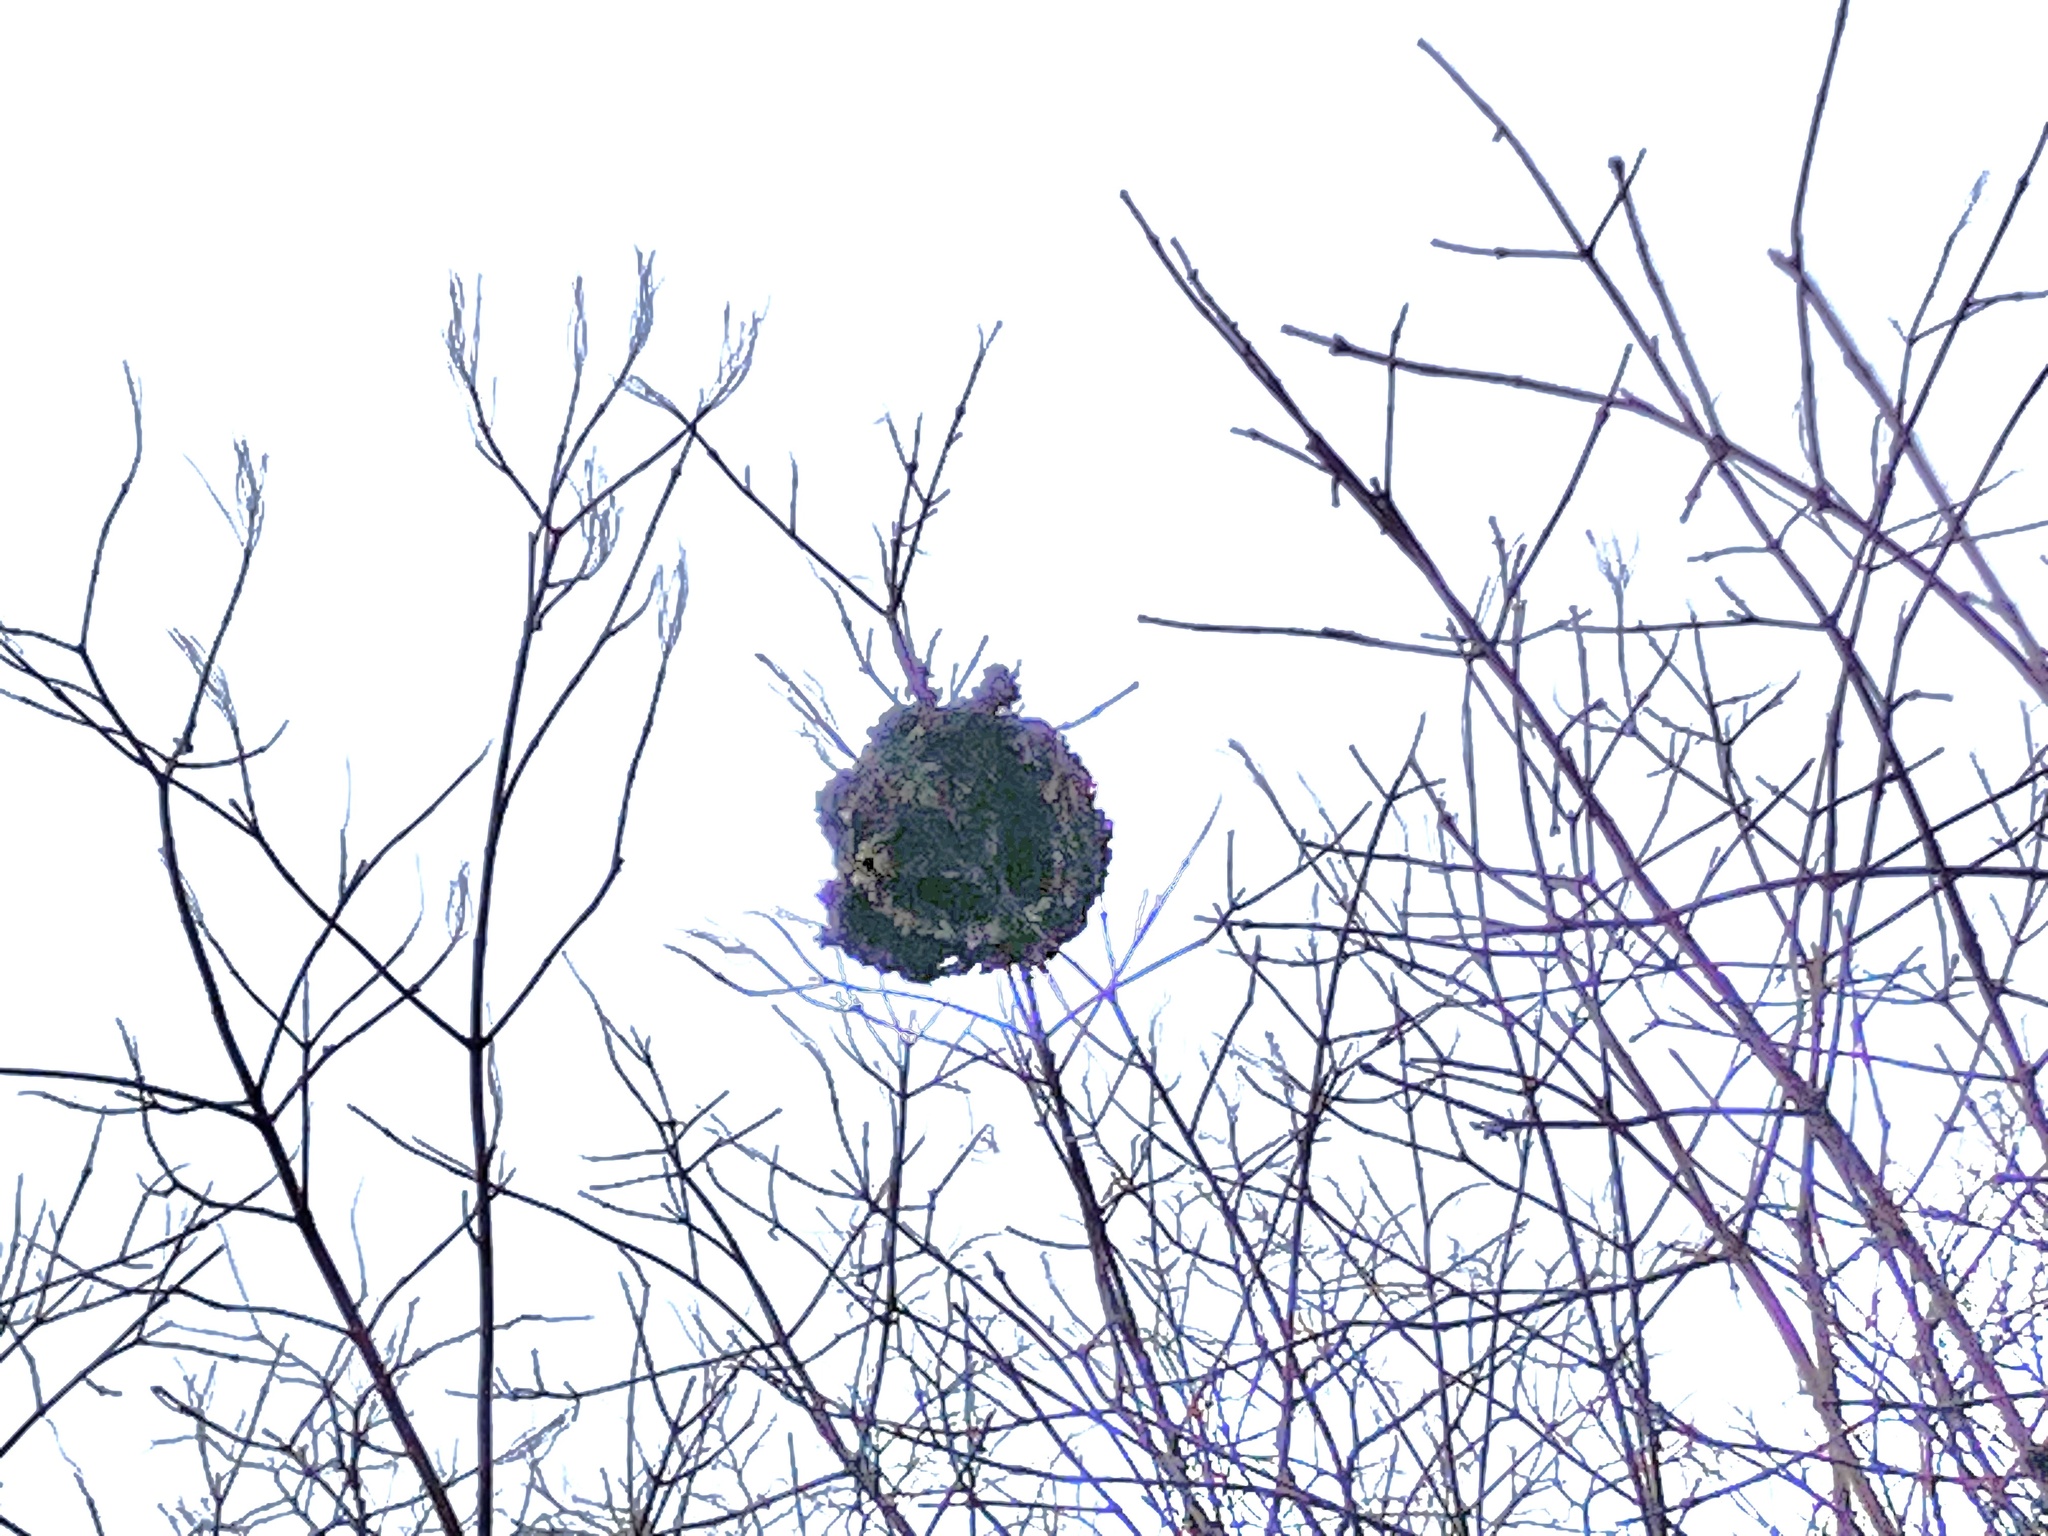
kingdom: Animalia
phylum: Arthropoda
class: Insecta
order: Hymenoptera
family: Vespidae
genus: Dolichovespula
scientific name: Dolichovespula
